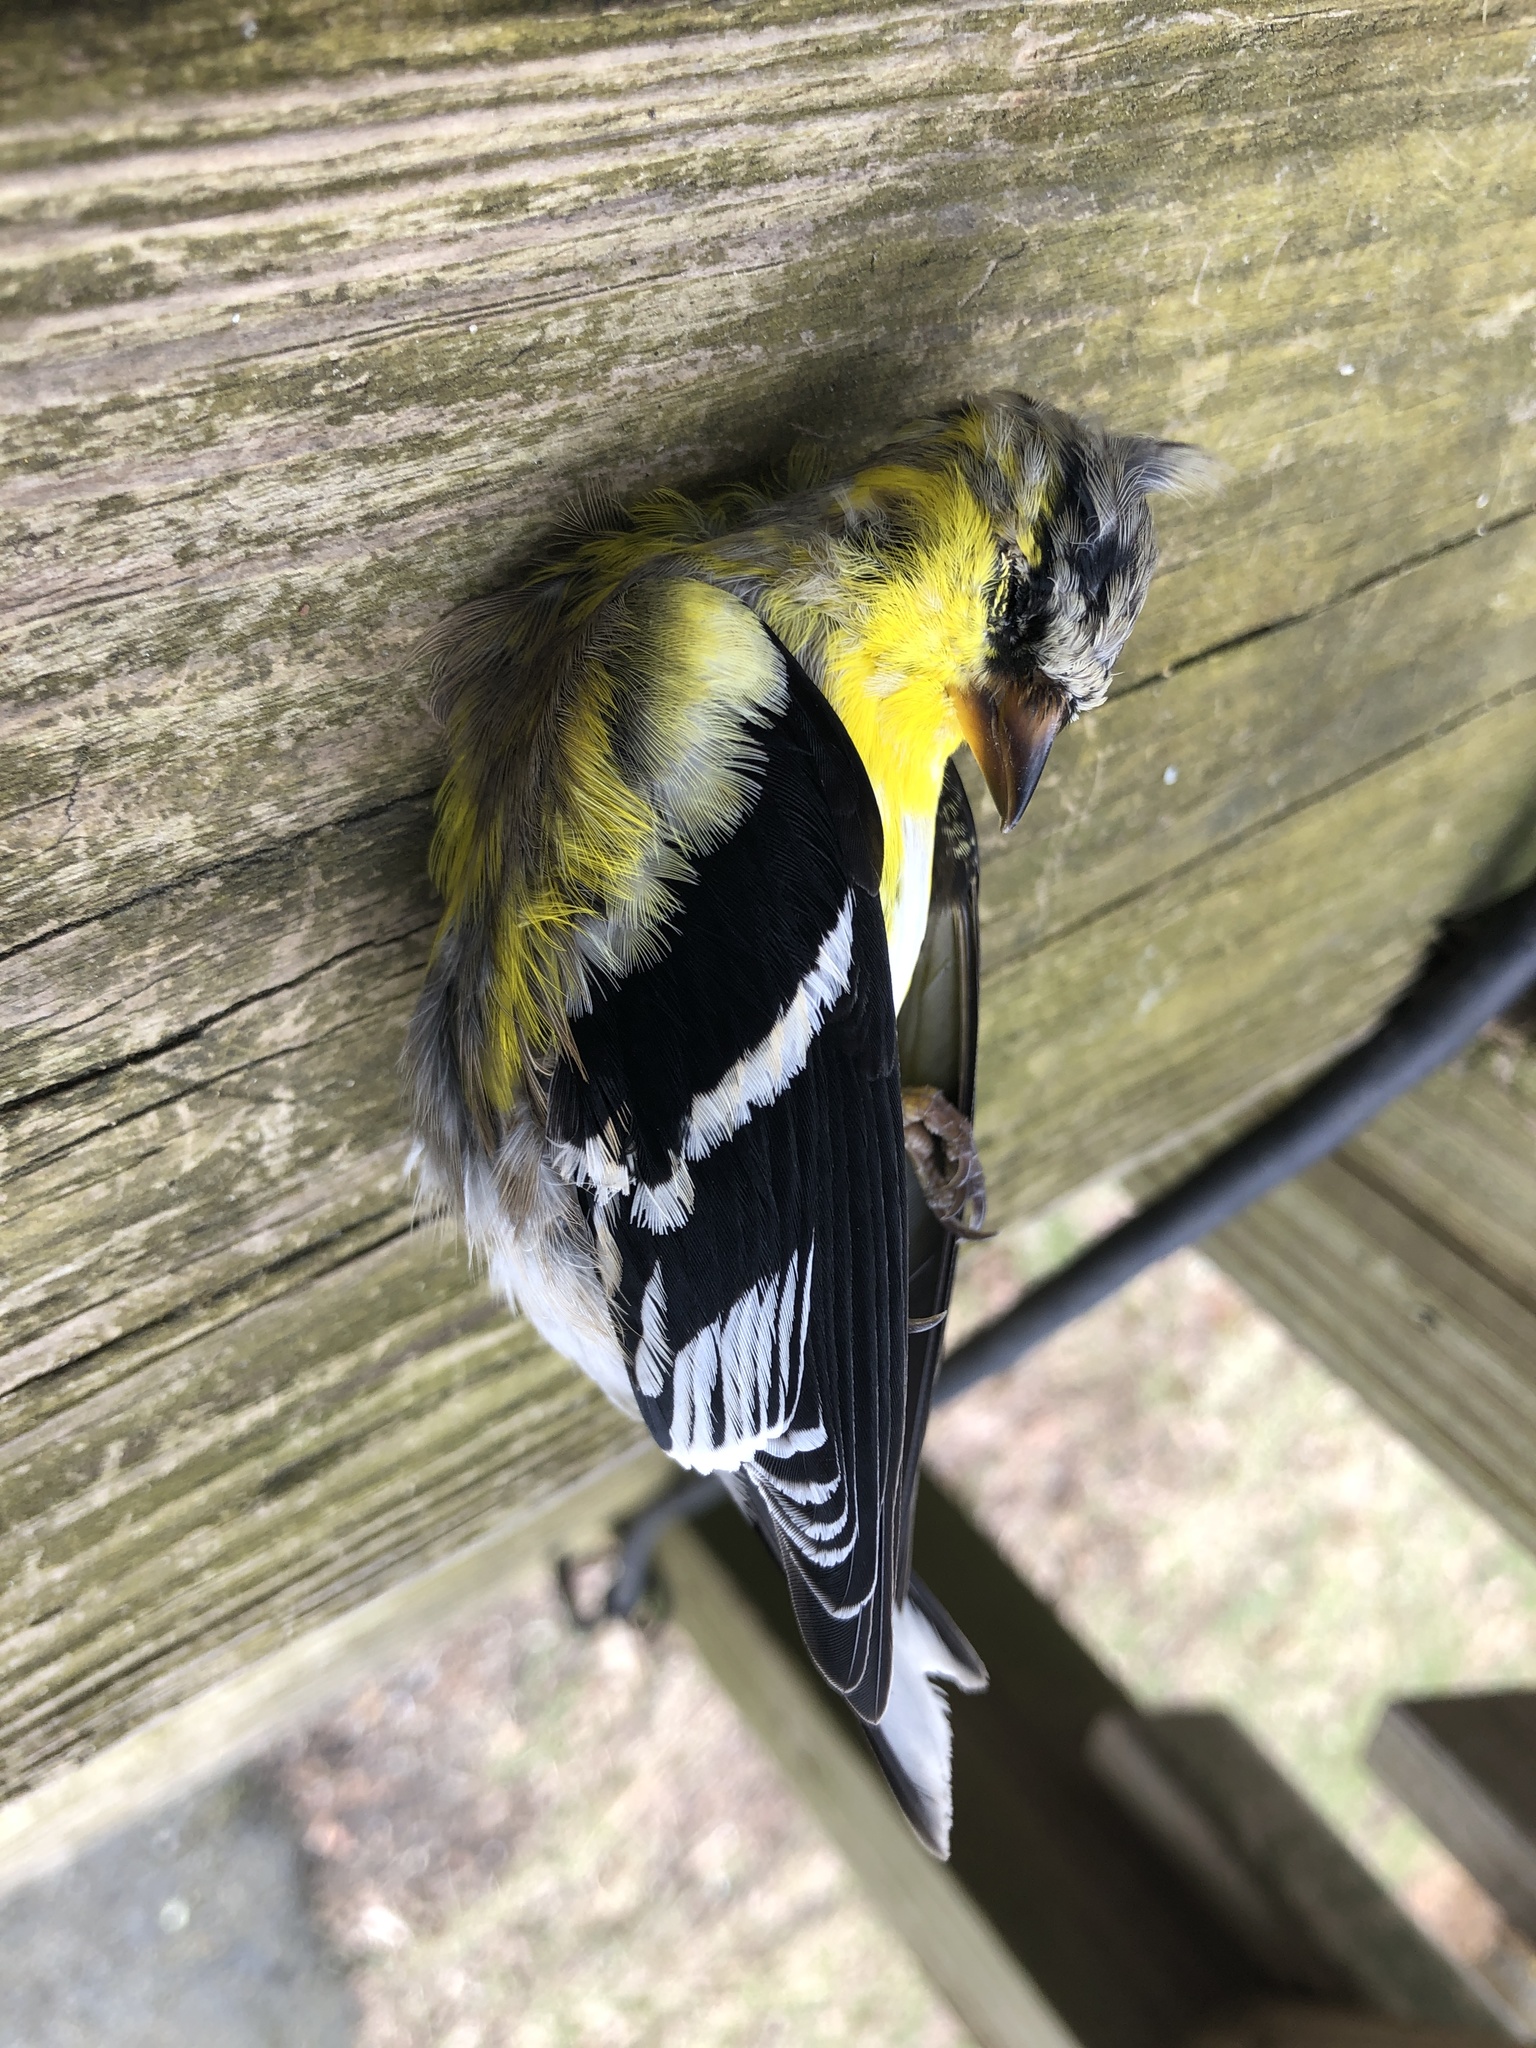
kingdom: Animalia
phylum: Chordata
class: Aves
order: Passeriformes
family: Fringillidae
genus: Spinus
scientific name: Spinus tristis
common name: American goldfinch
